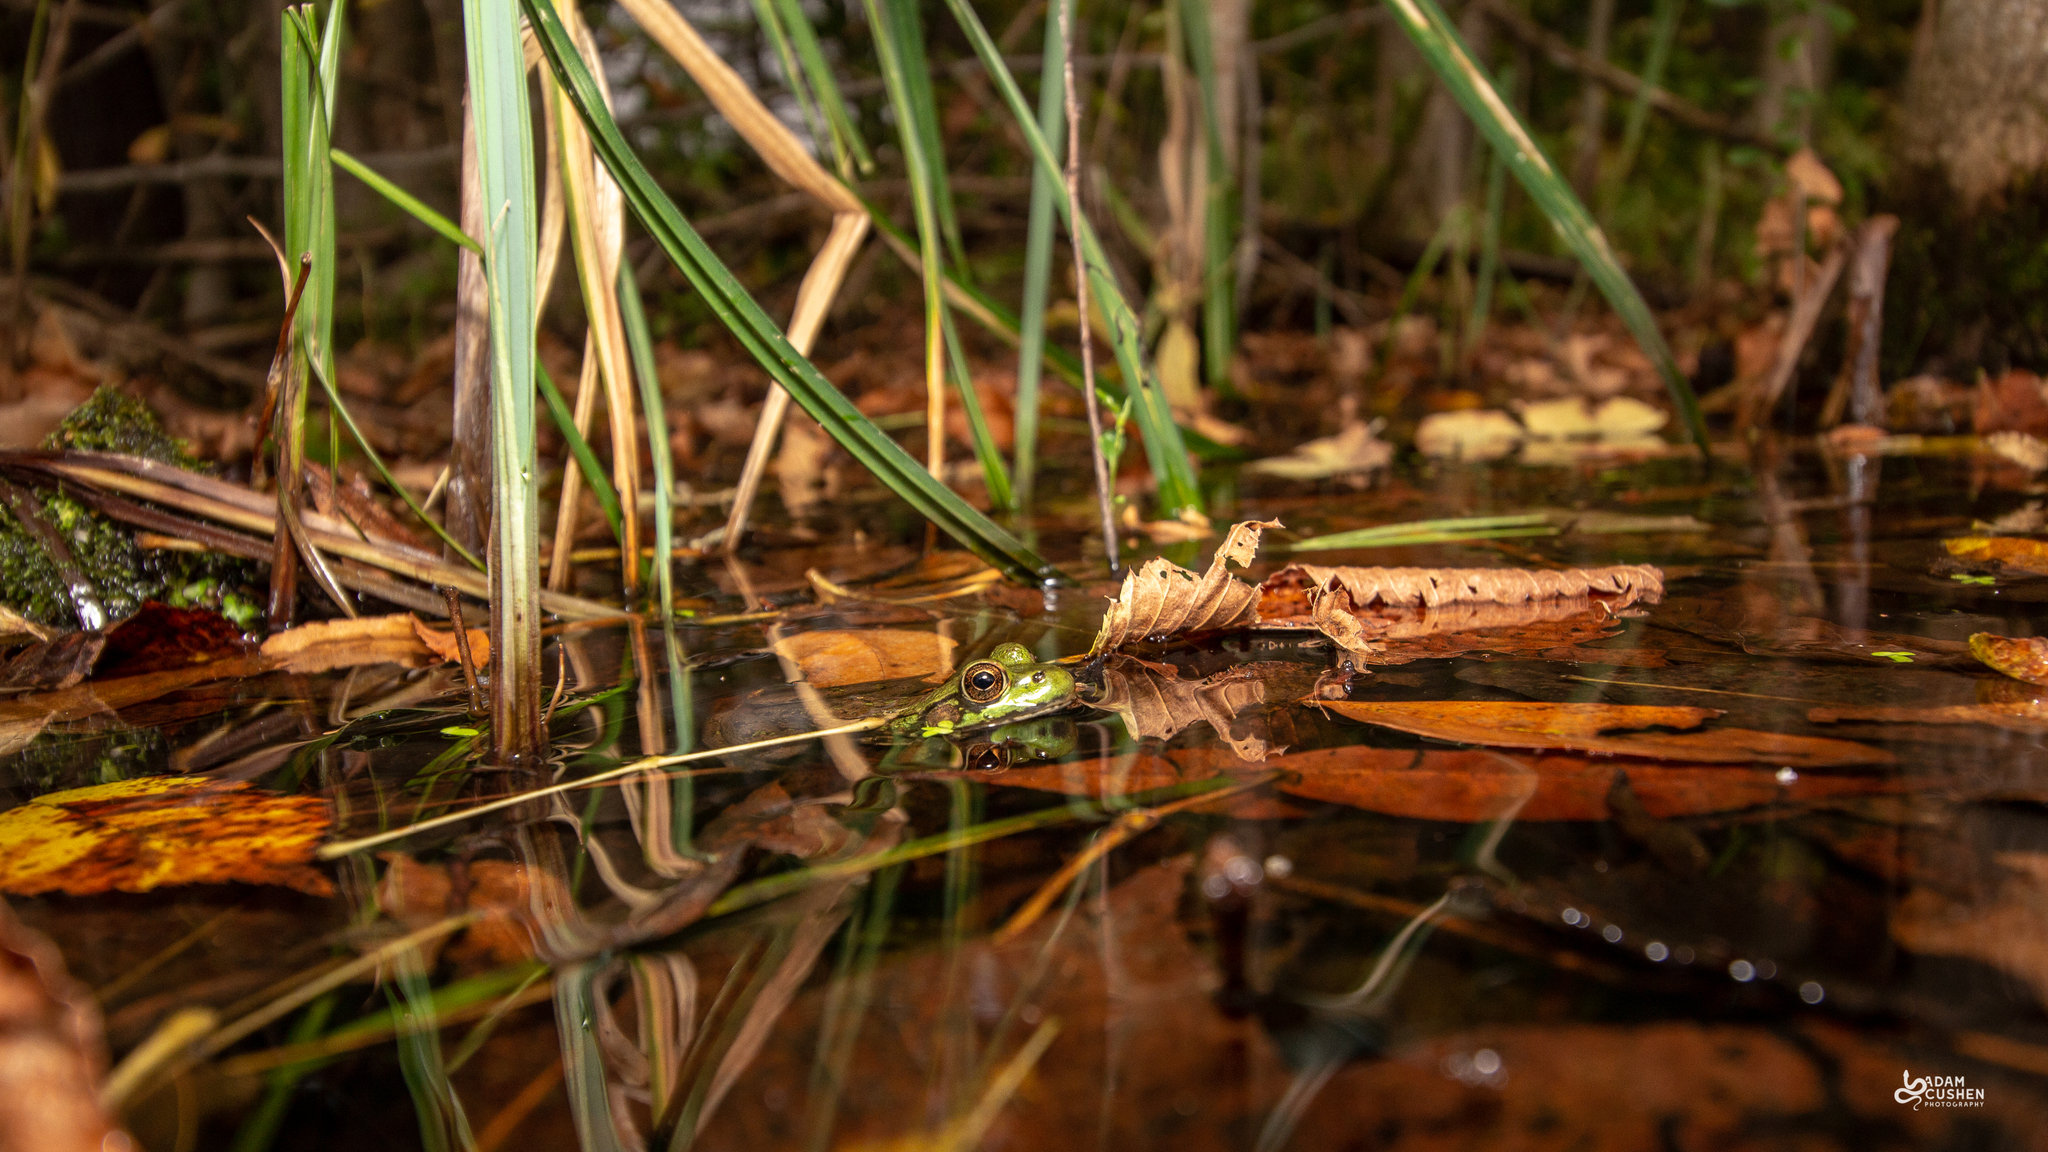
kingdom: Animalia
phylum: Chordata
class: Amphibia
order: Anura
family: Ranidae
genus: Lithobates
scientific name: Lithobates clamitans
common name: Green frog
